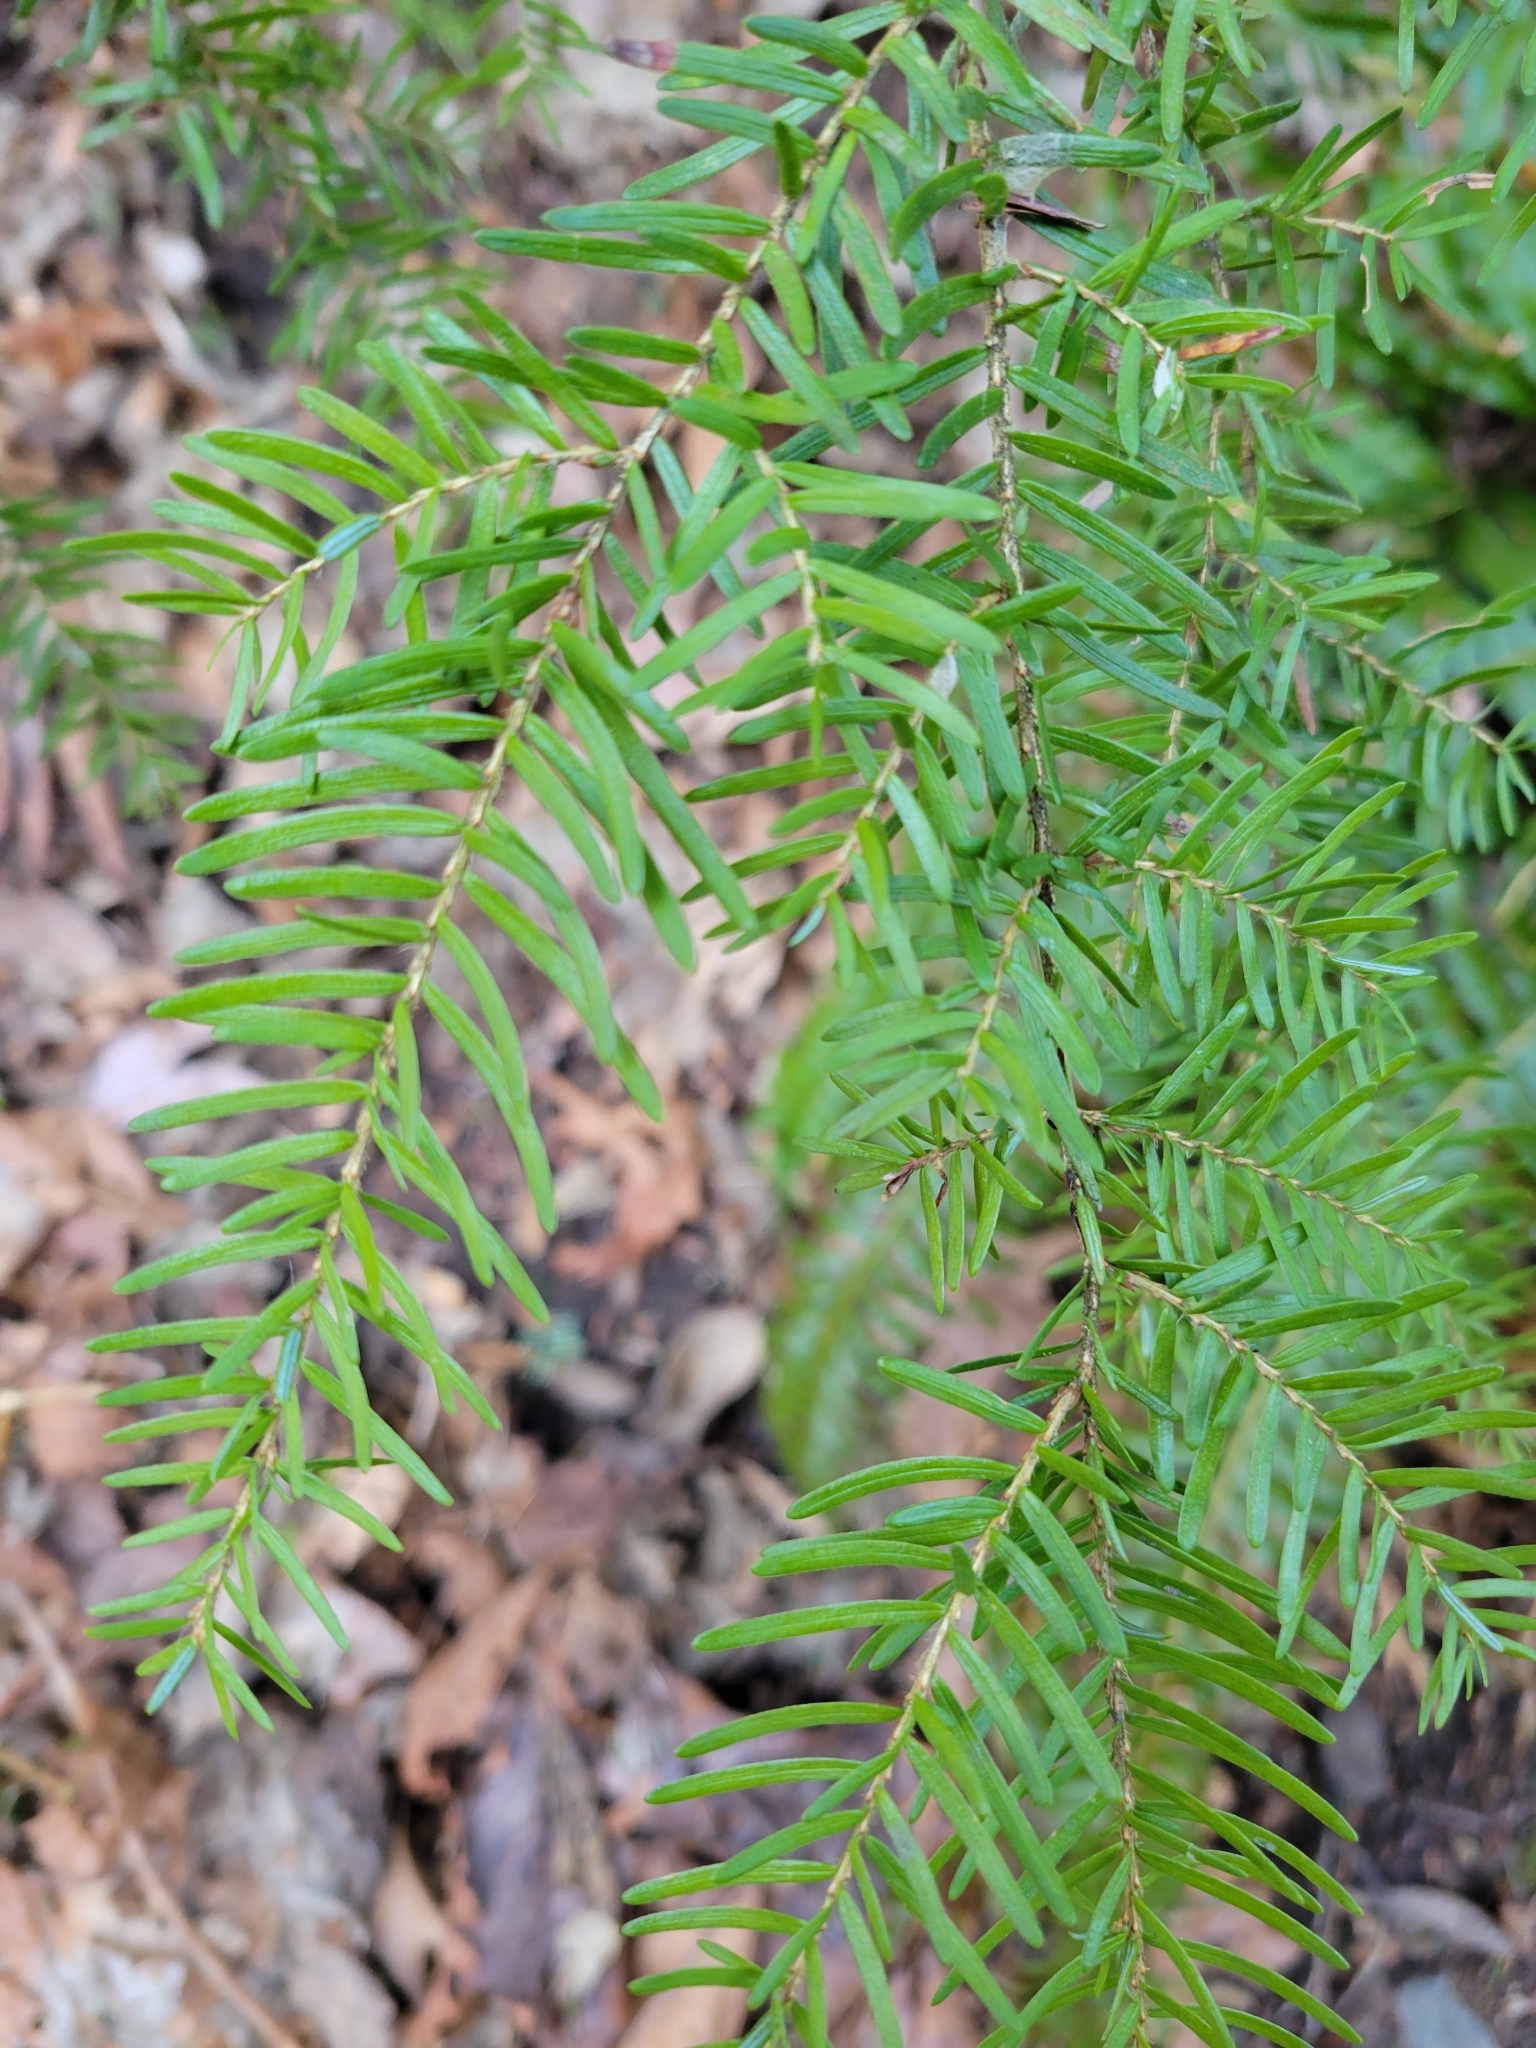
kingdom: Plantae
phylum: Tracheophyta
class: Pinopsida
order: Pinales
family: Pinaceae
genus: Tsuga
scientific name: Tsuga heterophylla
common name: Western hemlock
